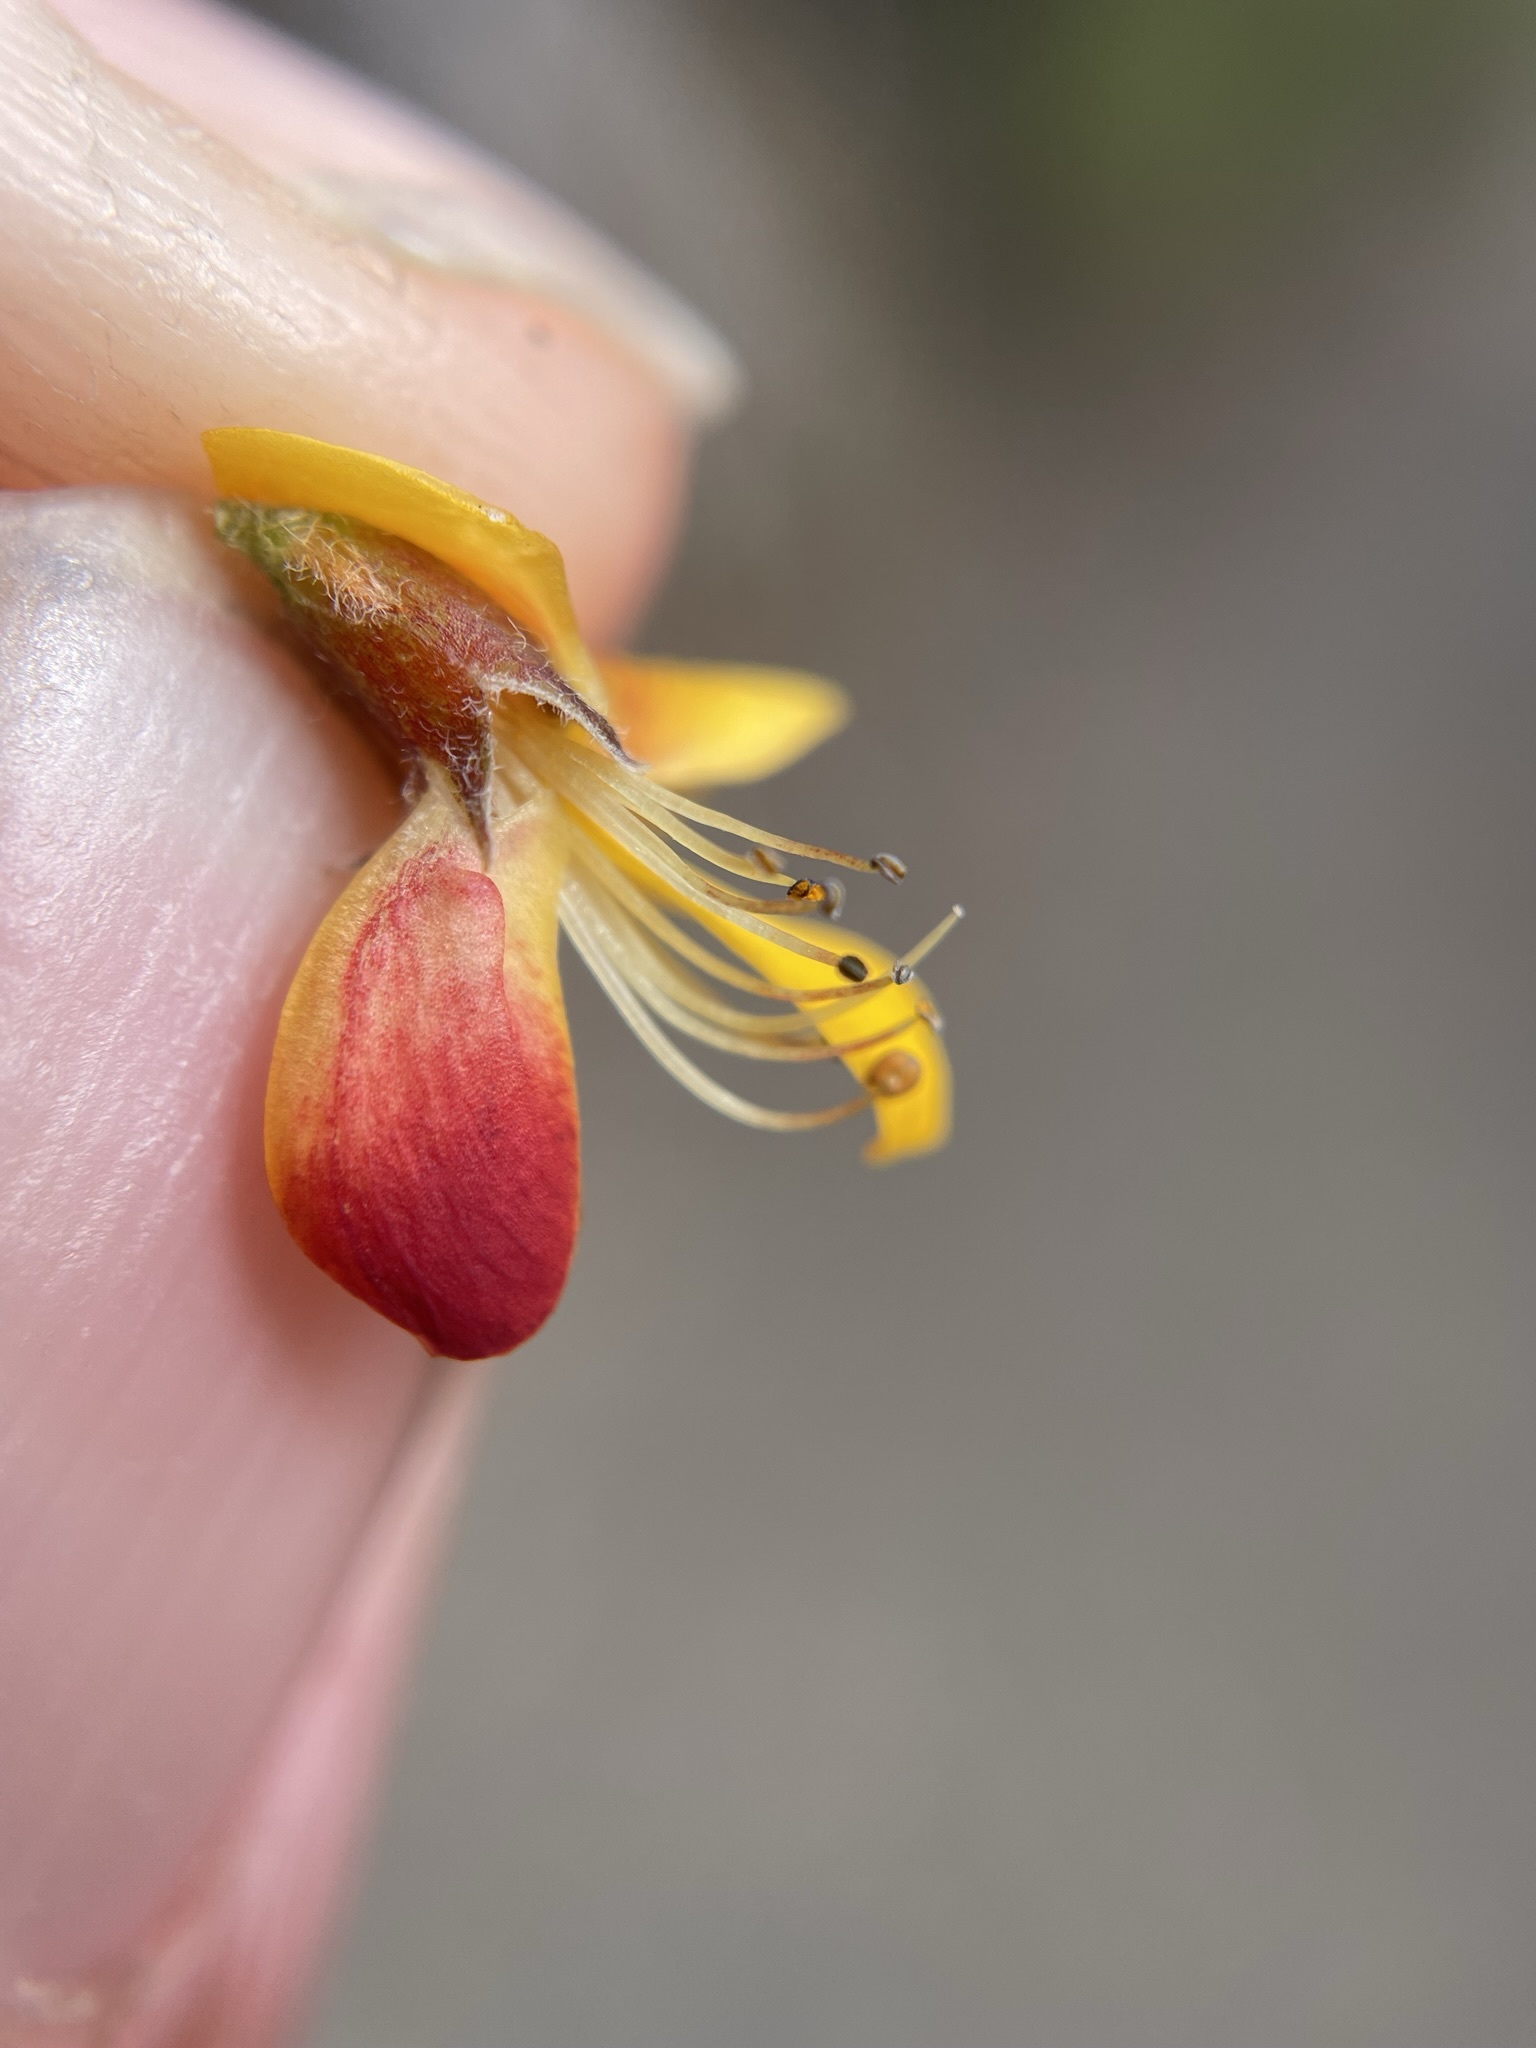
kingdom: Plantae
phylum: Tracheophyta
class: Magnoliopsida
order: Fabales
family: Fabaceae
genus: Pultenaea
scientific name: Pultenaea juniperina
